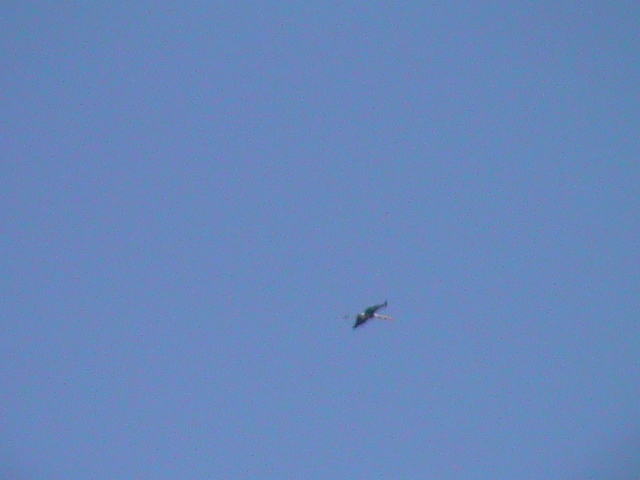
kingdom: Animalia
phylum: Chordata
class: Aves
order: Ciconiiformes
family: Ciconiidae
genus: Mycteria
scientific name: Mycteria leucocephala
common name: Painted stork
